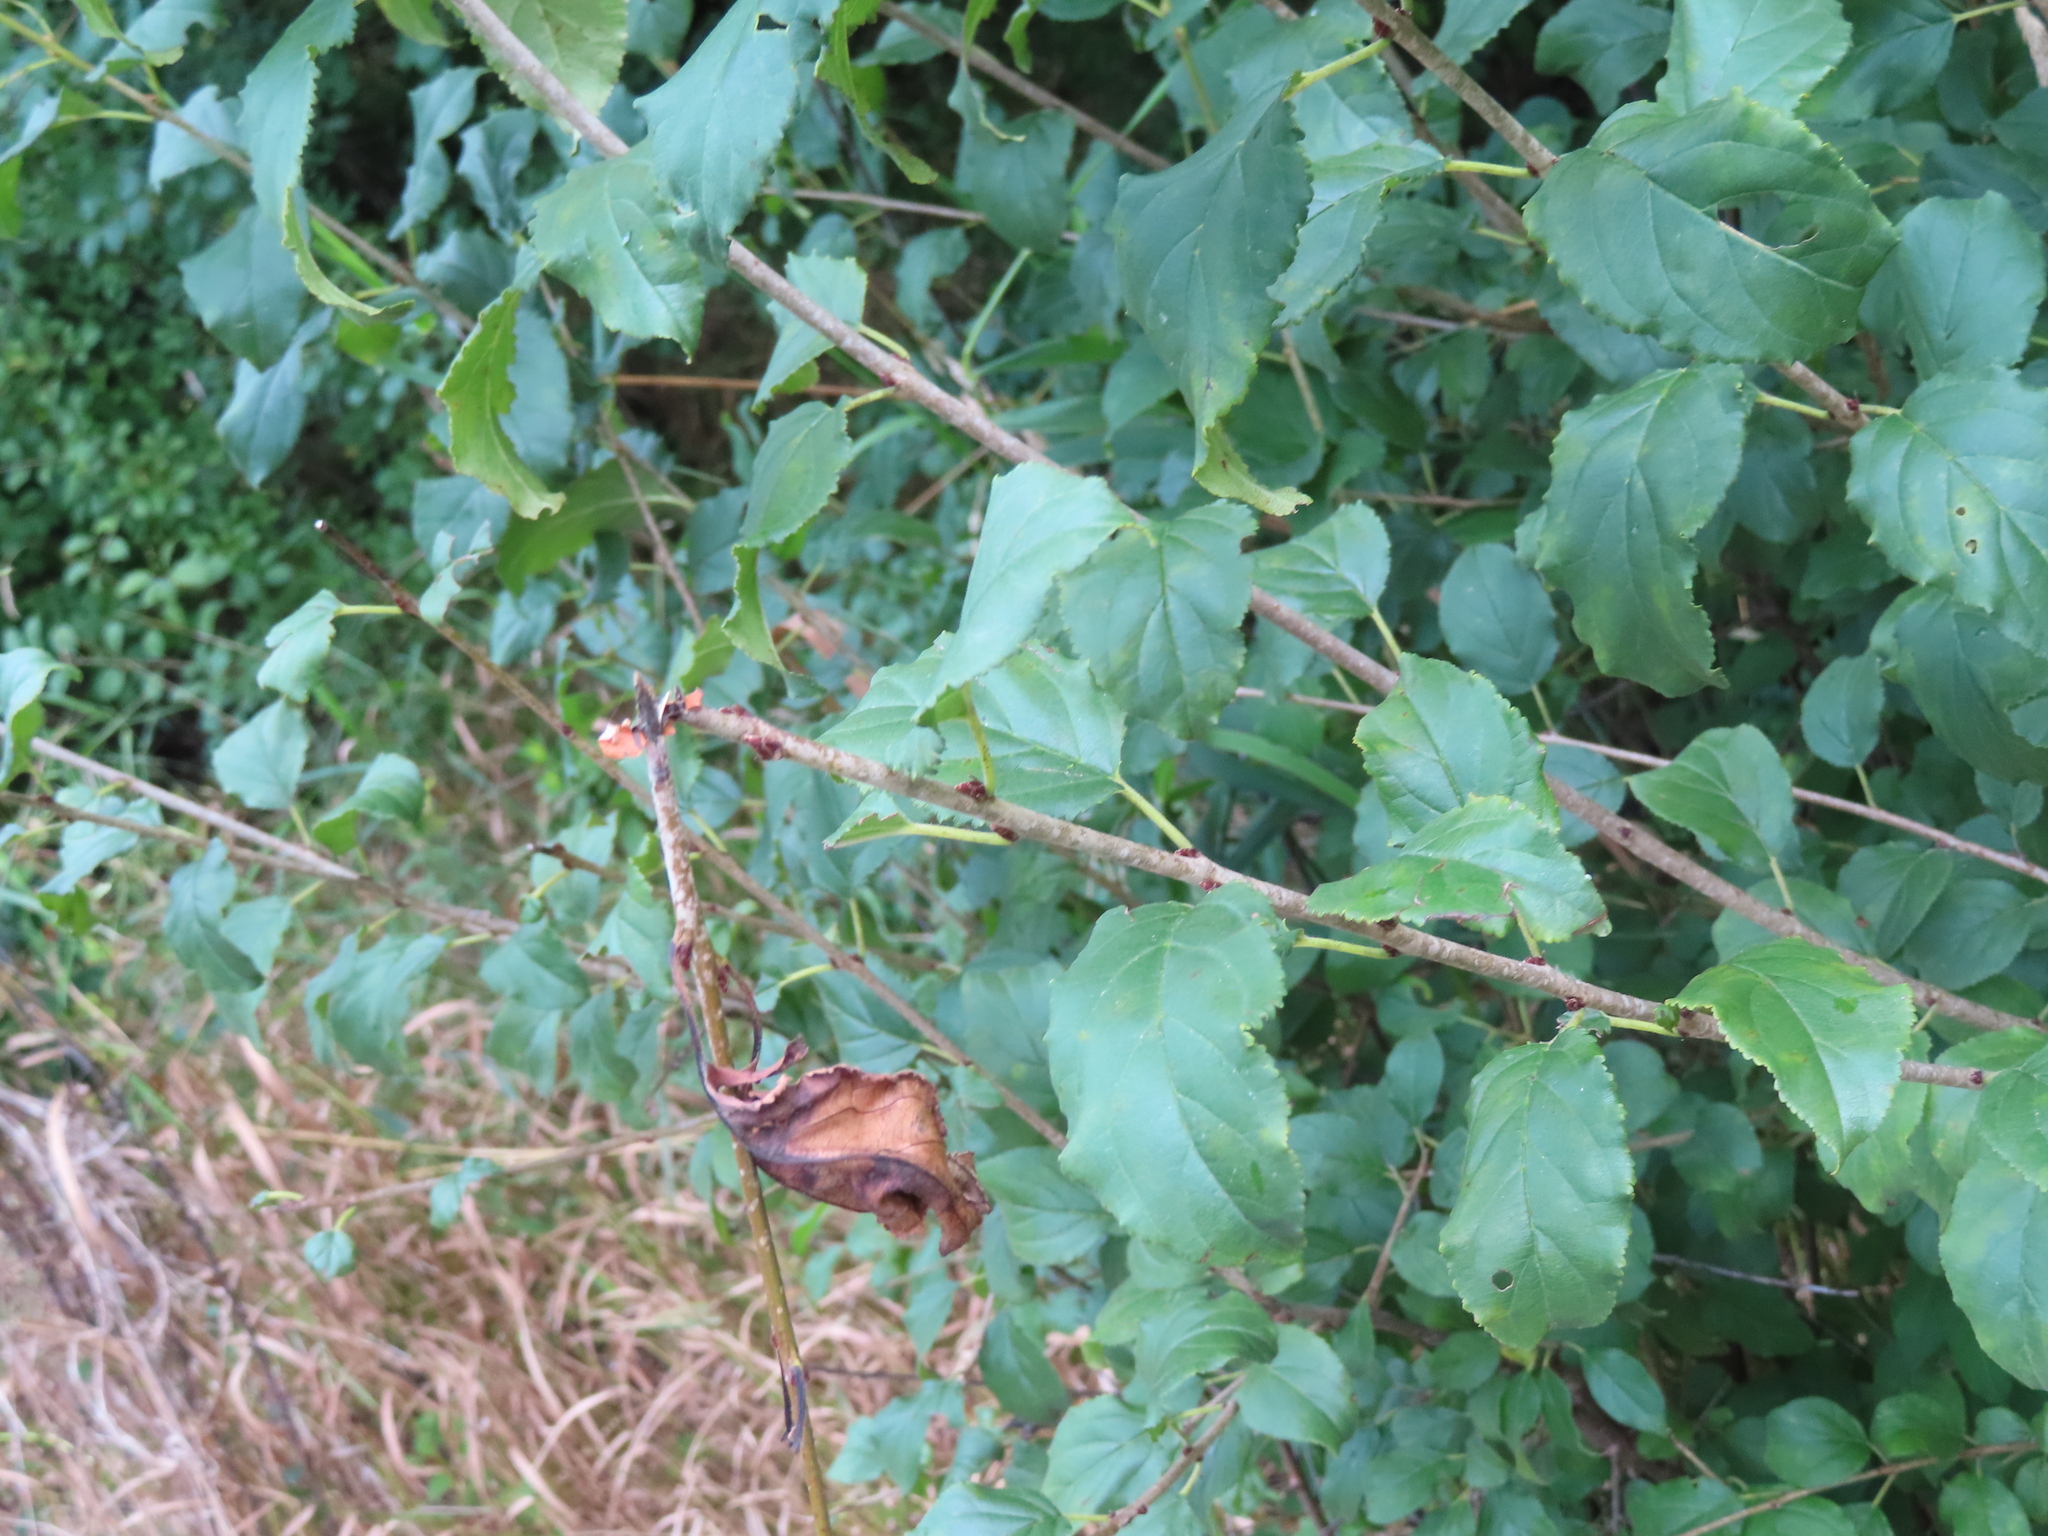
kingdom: Plantae
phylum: Tracheophyta
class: Magnoliopsida
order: Rosales
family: Rhamnaceae
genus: Rhamnus
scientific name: Rhamnus cathartica
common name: Common buckthorn
